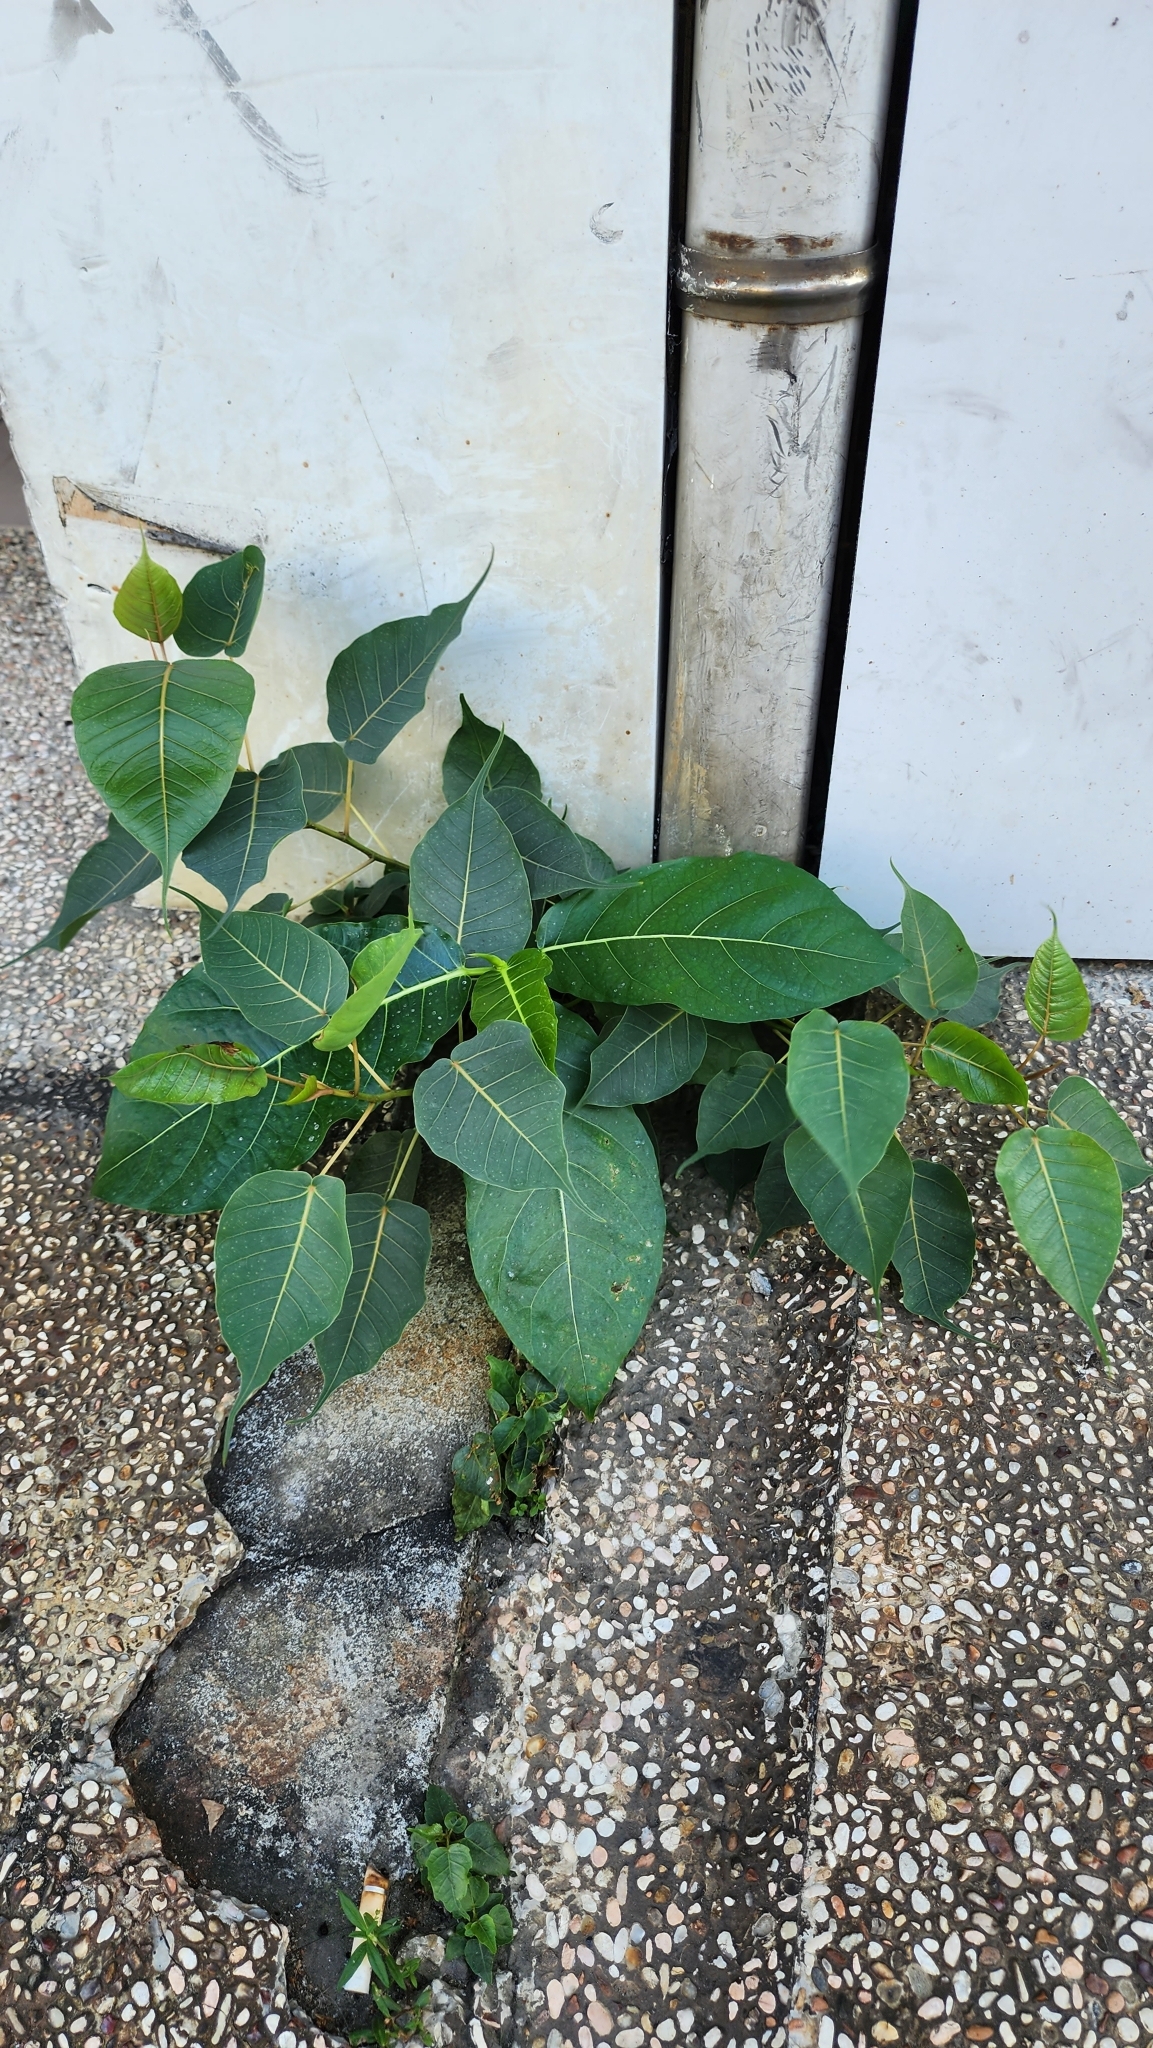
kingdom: Plantae
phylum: Tracheophyta
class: Magnoliopsida
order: Rosales
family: Moraceae
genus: Ficus
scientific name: Ficus religiosa
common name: Bodhi tree
